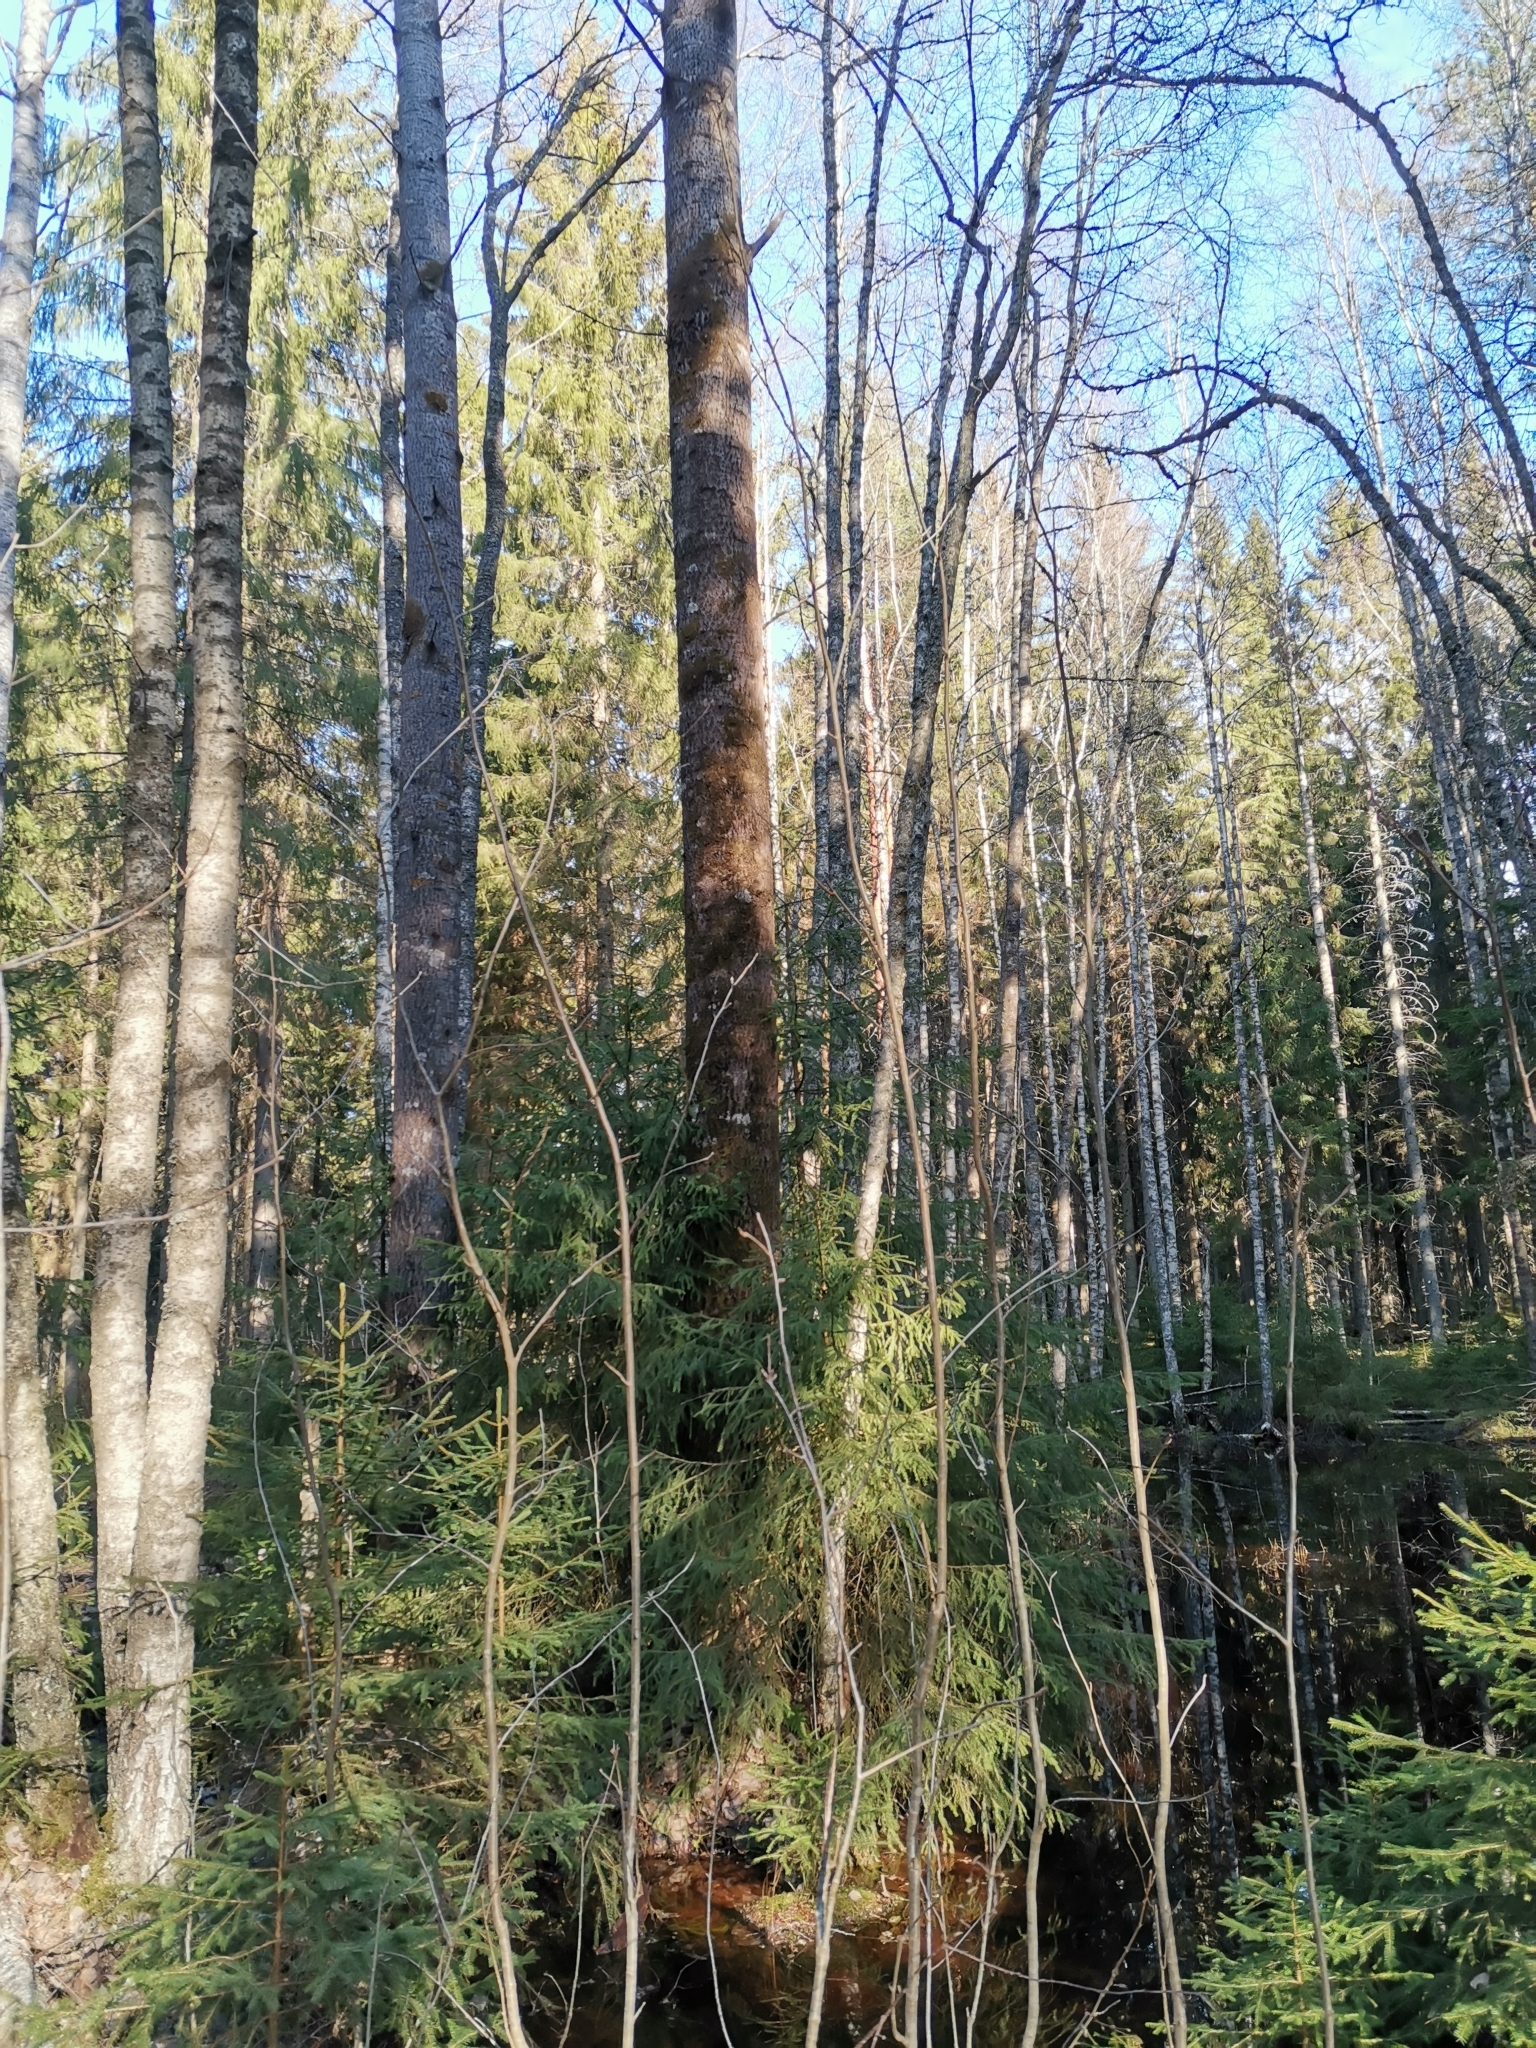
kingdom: Animalia
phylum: Chordata
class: Mammalia
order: Rodentia
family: Sciuridae
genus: Pteromys
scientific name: Pteromys volans
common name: Siberian flying squirrel
